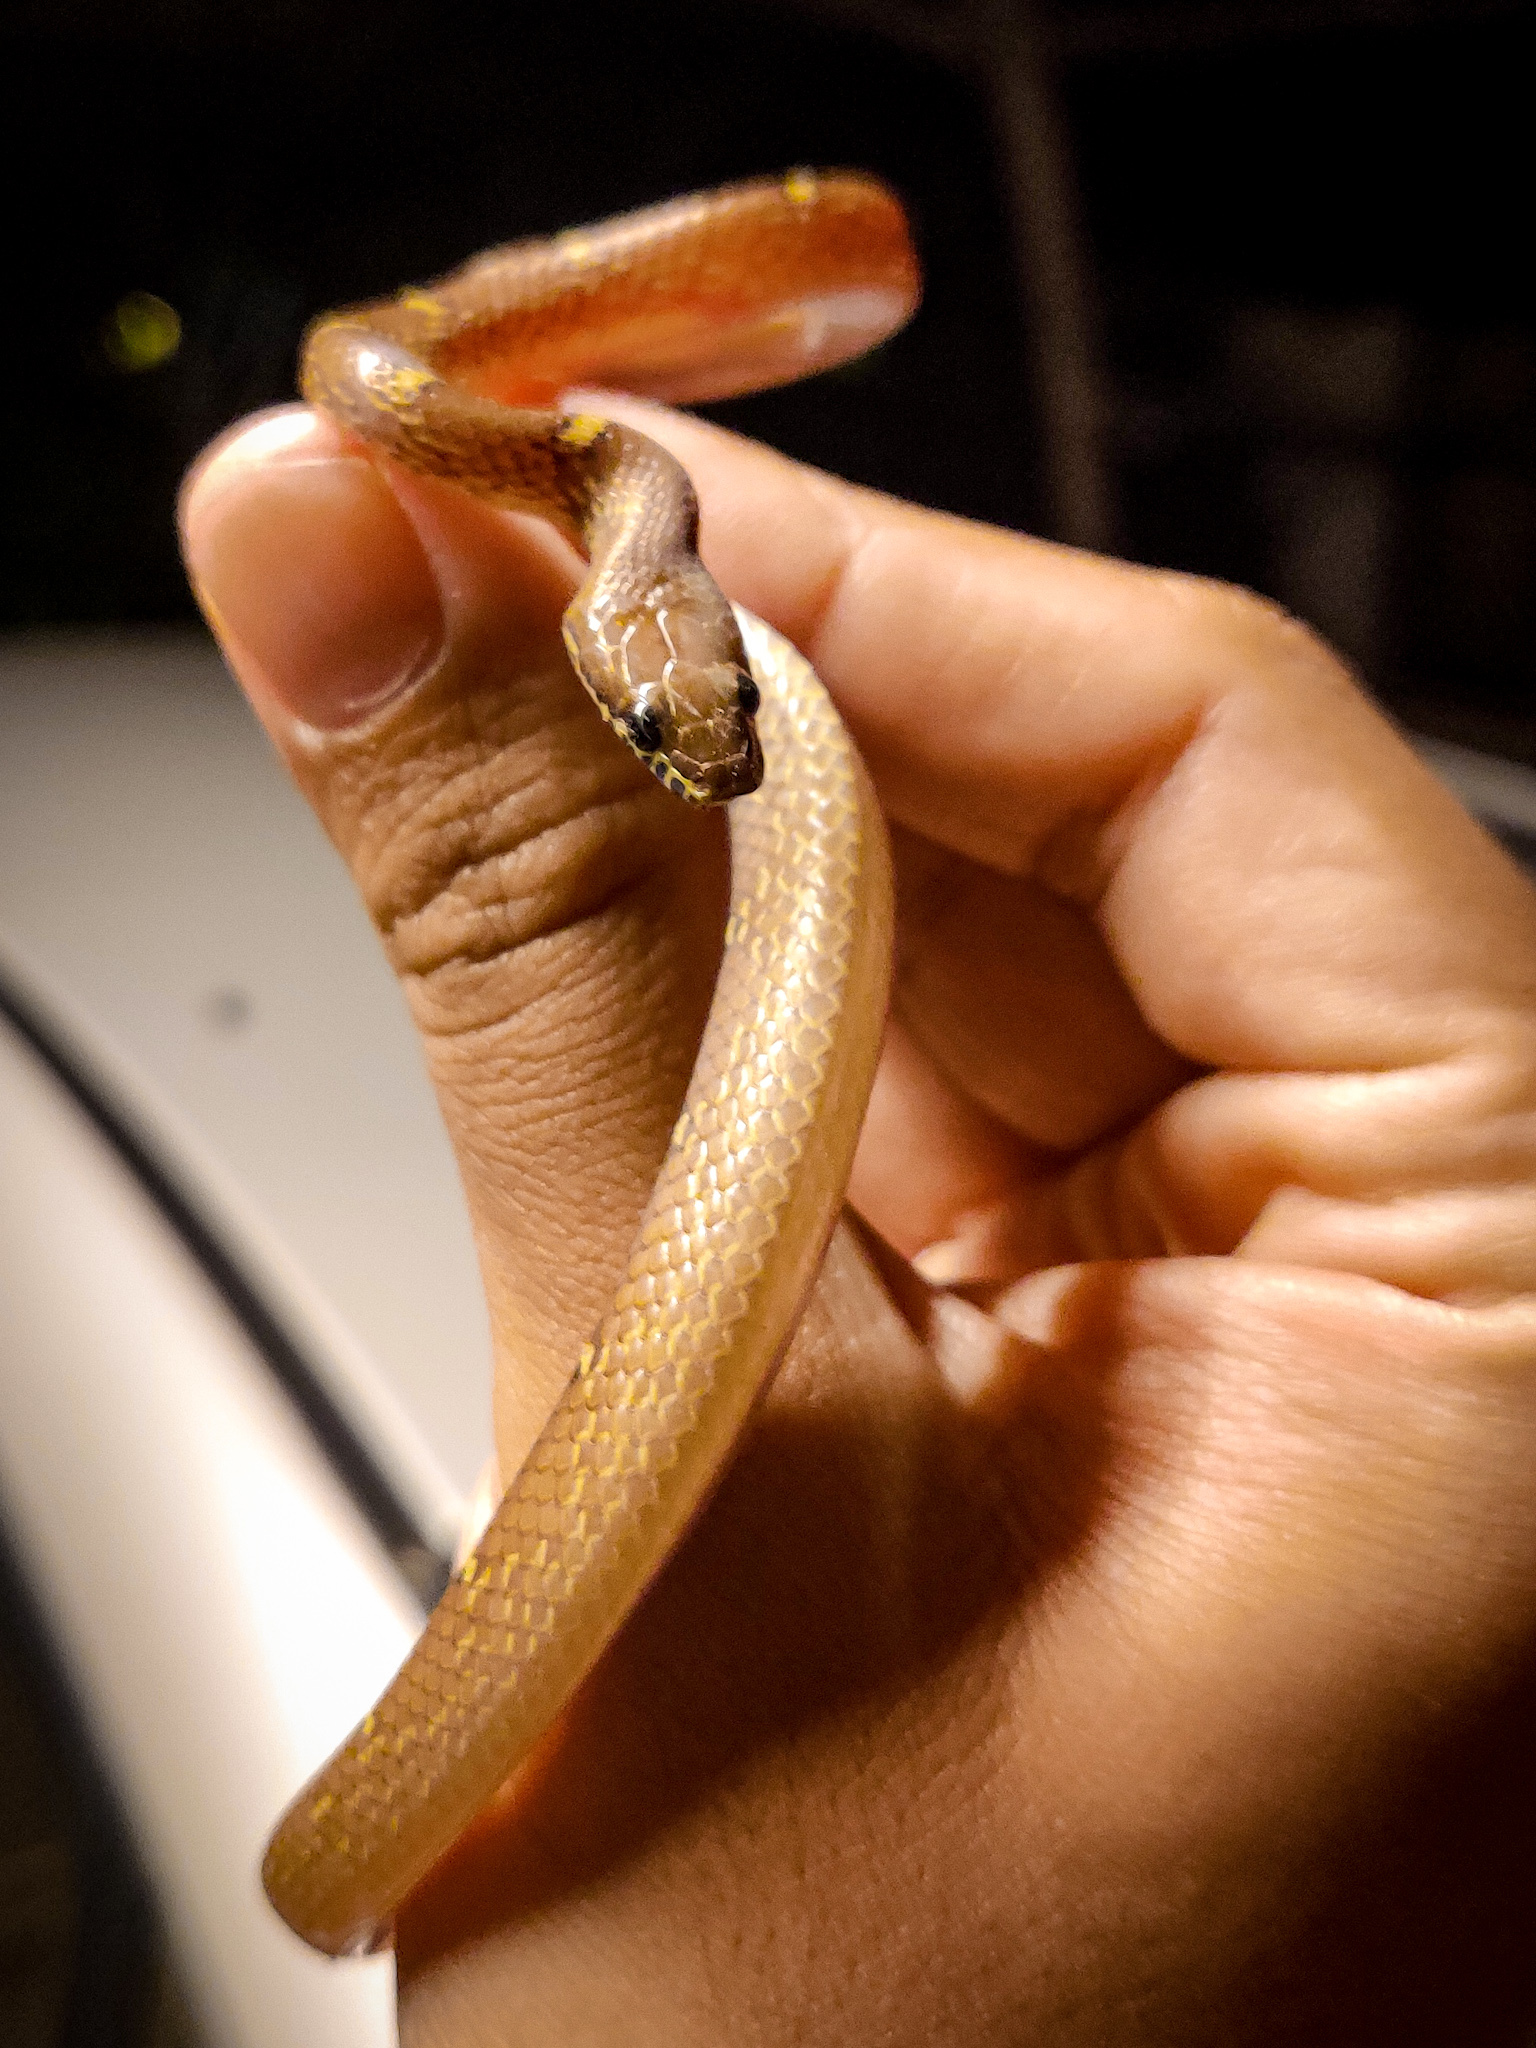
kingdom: Animalia
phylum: Chordata
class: Squamata
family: Colubridae
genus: Lycodon
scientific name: Lycodon fasciolatus
